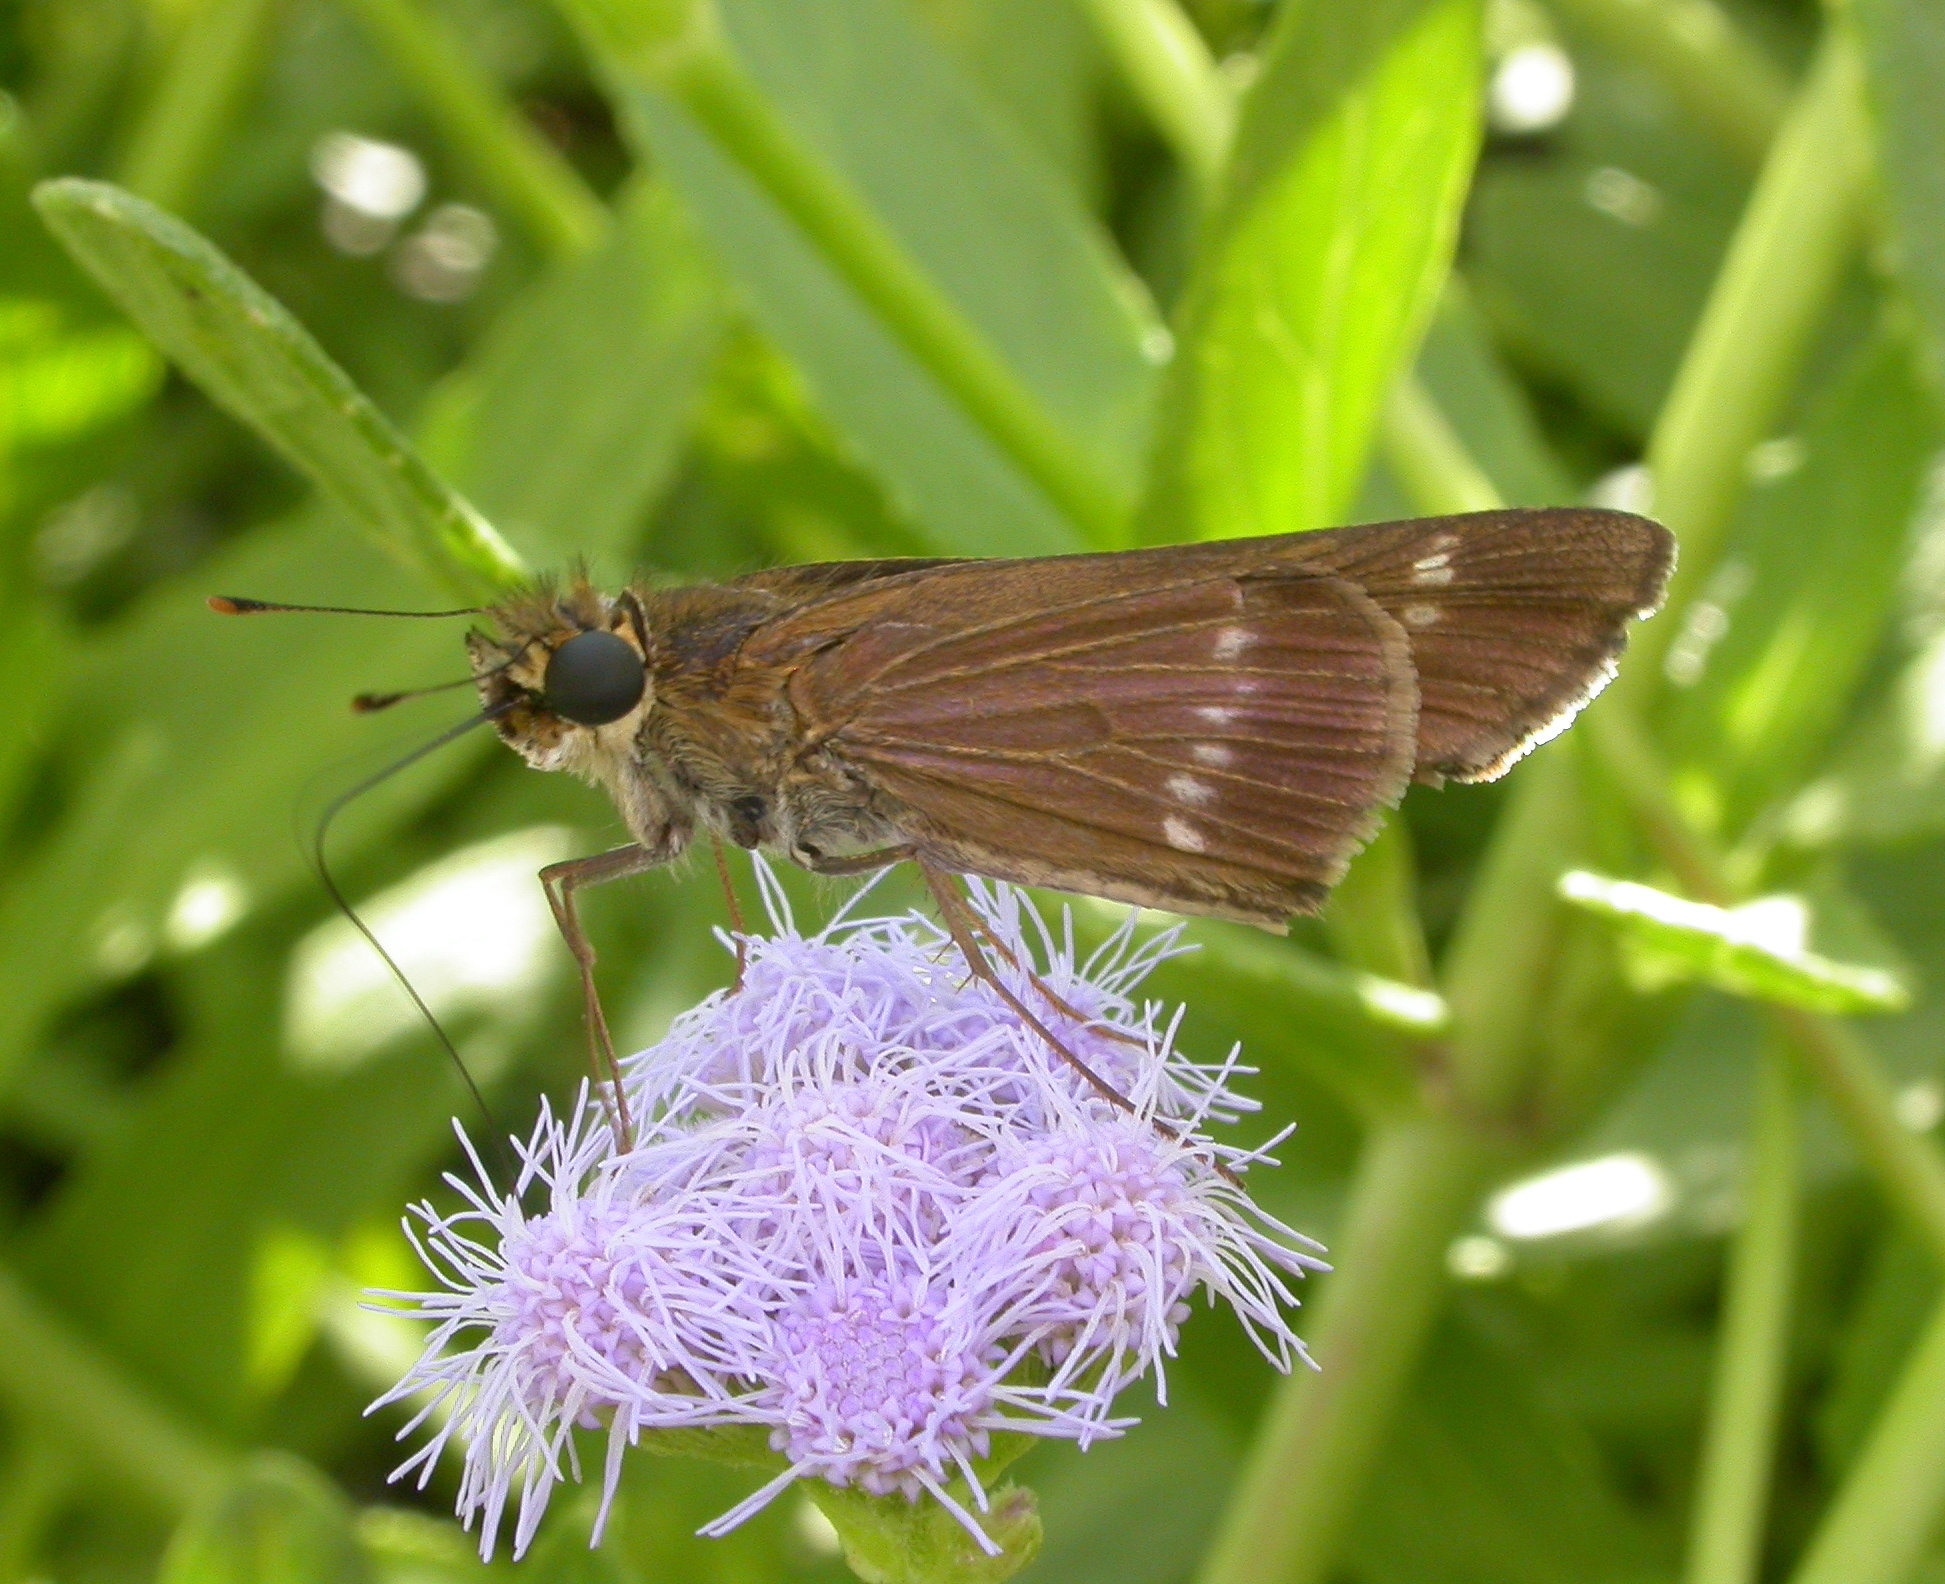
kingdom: Animalia
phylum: Arthropoda
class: Insecta
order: Lepidoptera
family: Hesperiidae
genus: Turesis
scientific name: Turesis lucas
